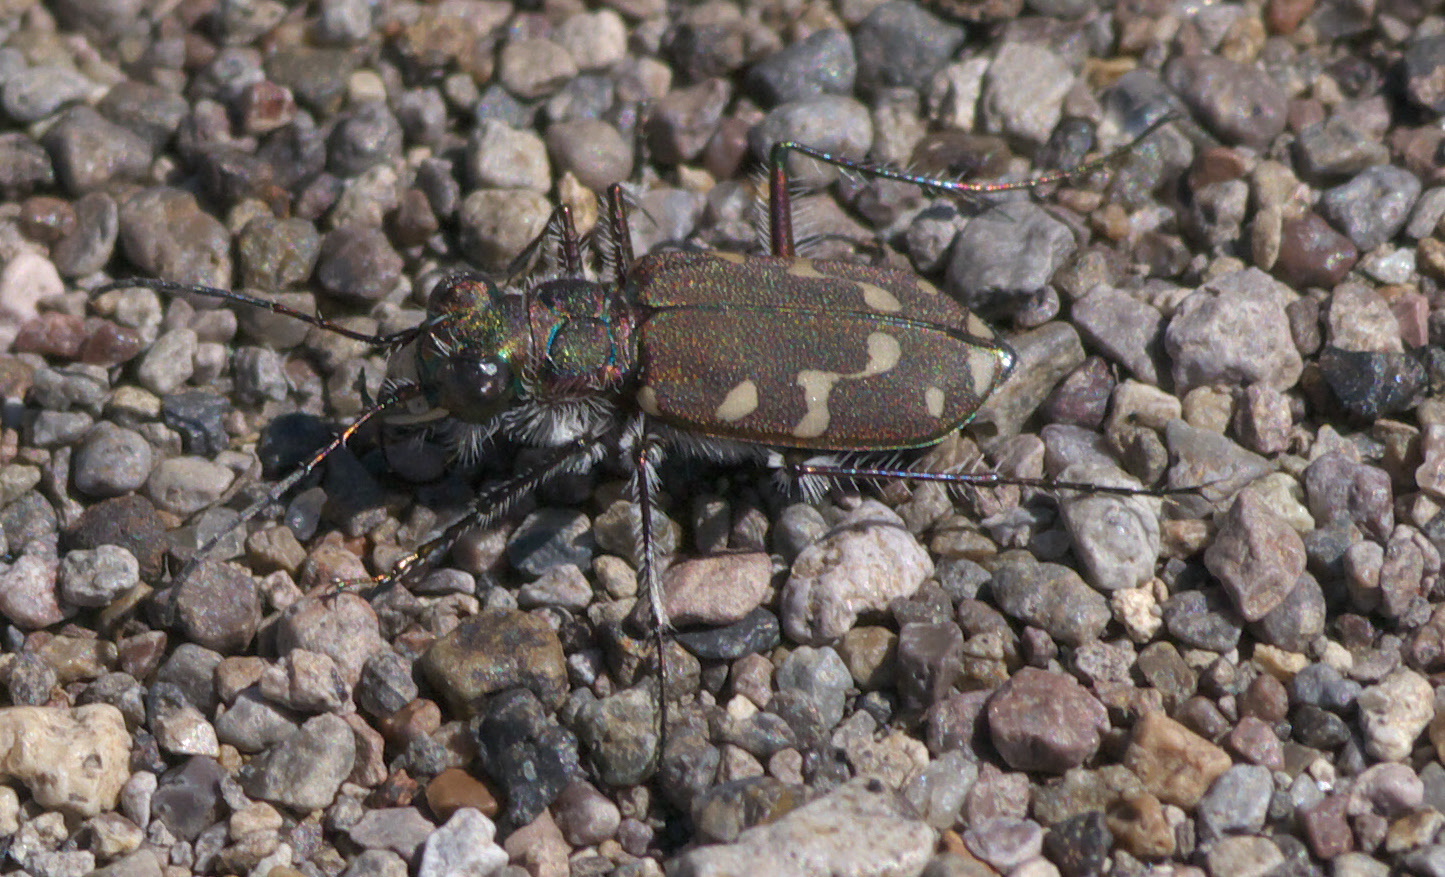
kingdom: Animalia
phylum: Arthropoda
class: Insecta
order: Coleoptera
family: Carabidae
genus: Cicindela
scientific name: Cicindela oregona
